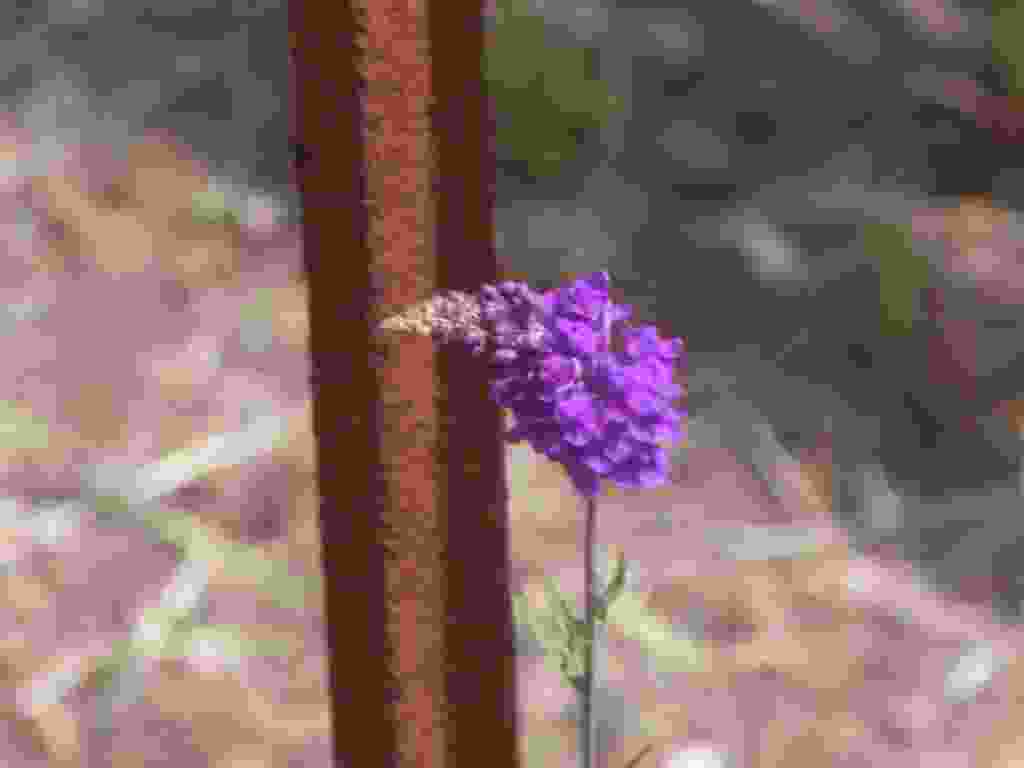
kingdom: Plantae
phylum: Tracheophyta
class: Magnoliopsida
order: Lamiales
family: Plantaginaceae
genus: Linaria
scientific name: Linaria purpurea
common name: Purple toadflax
